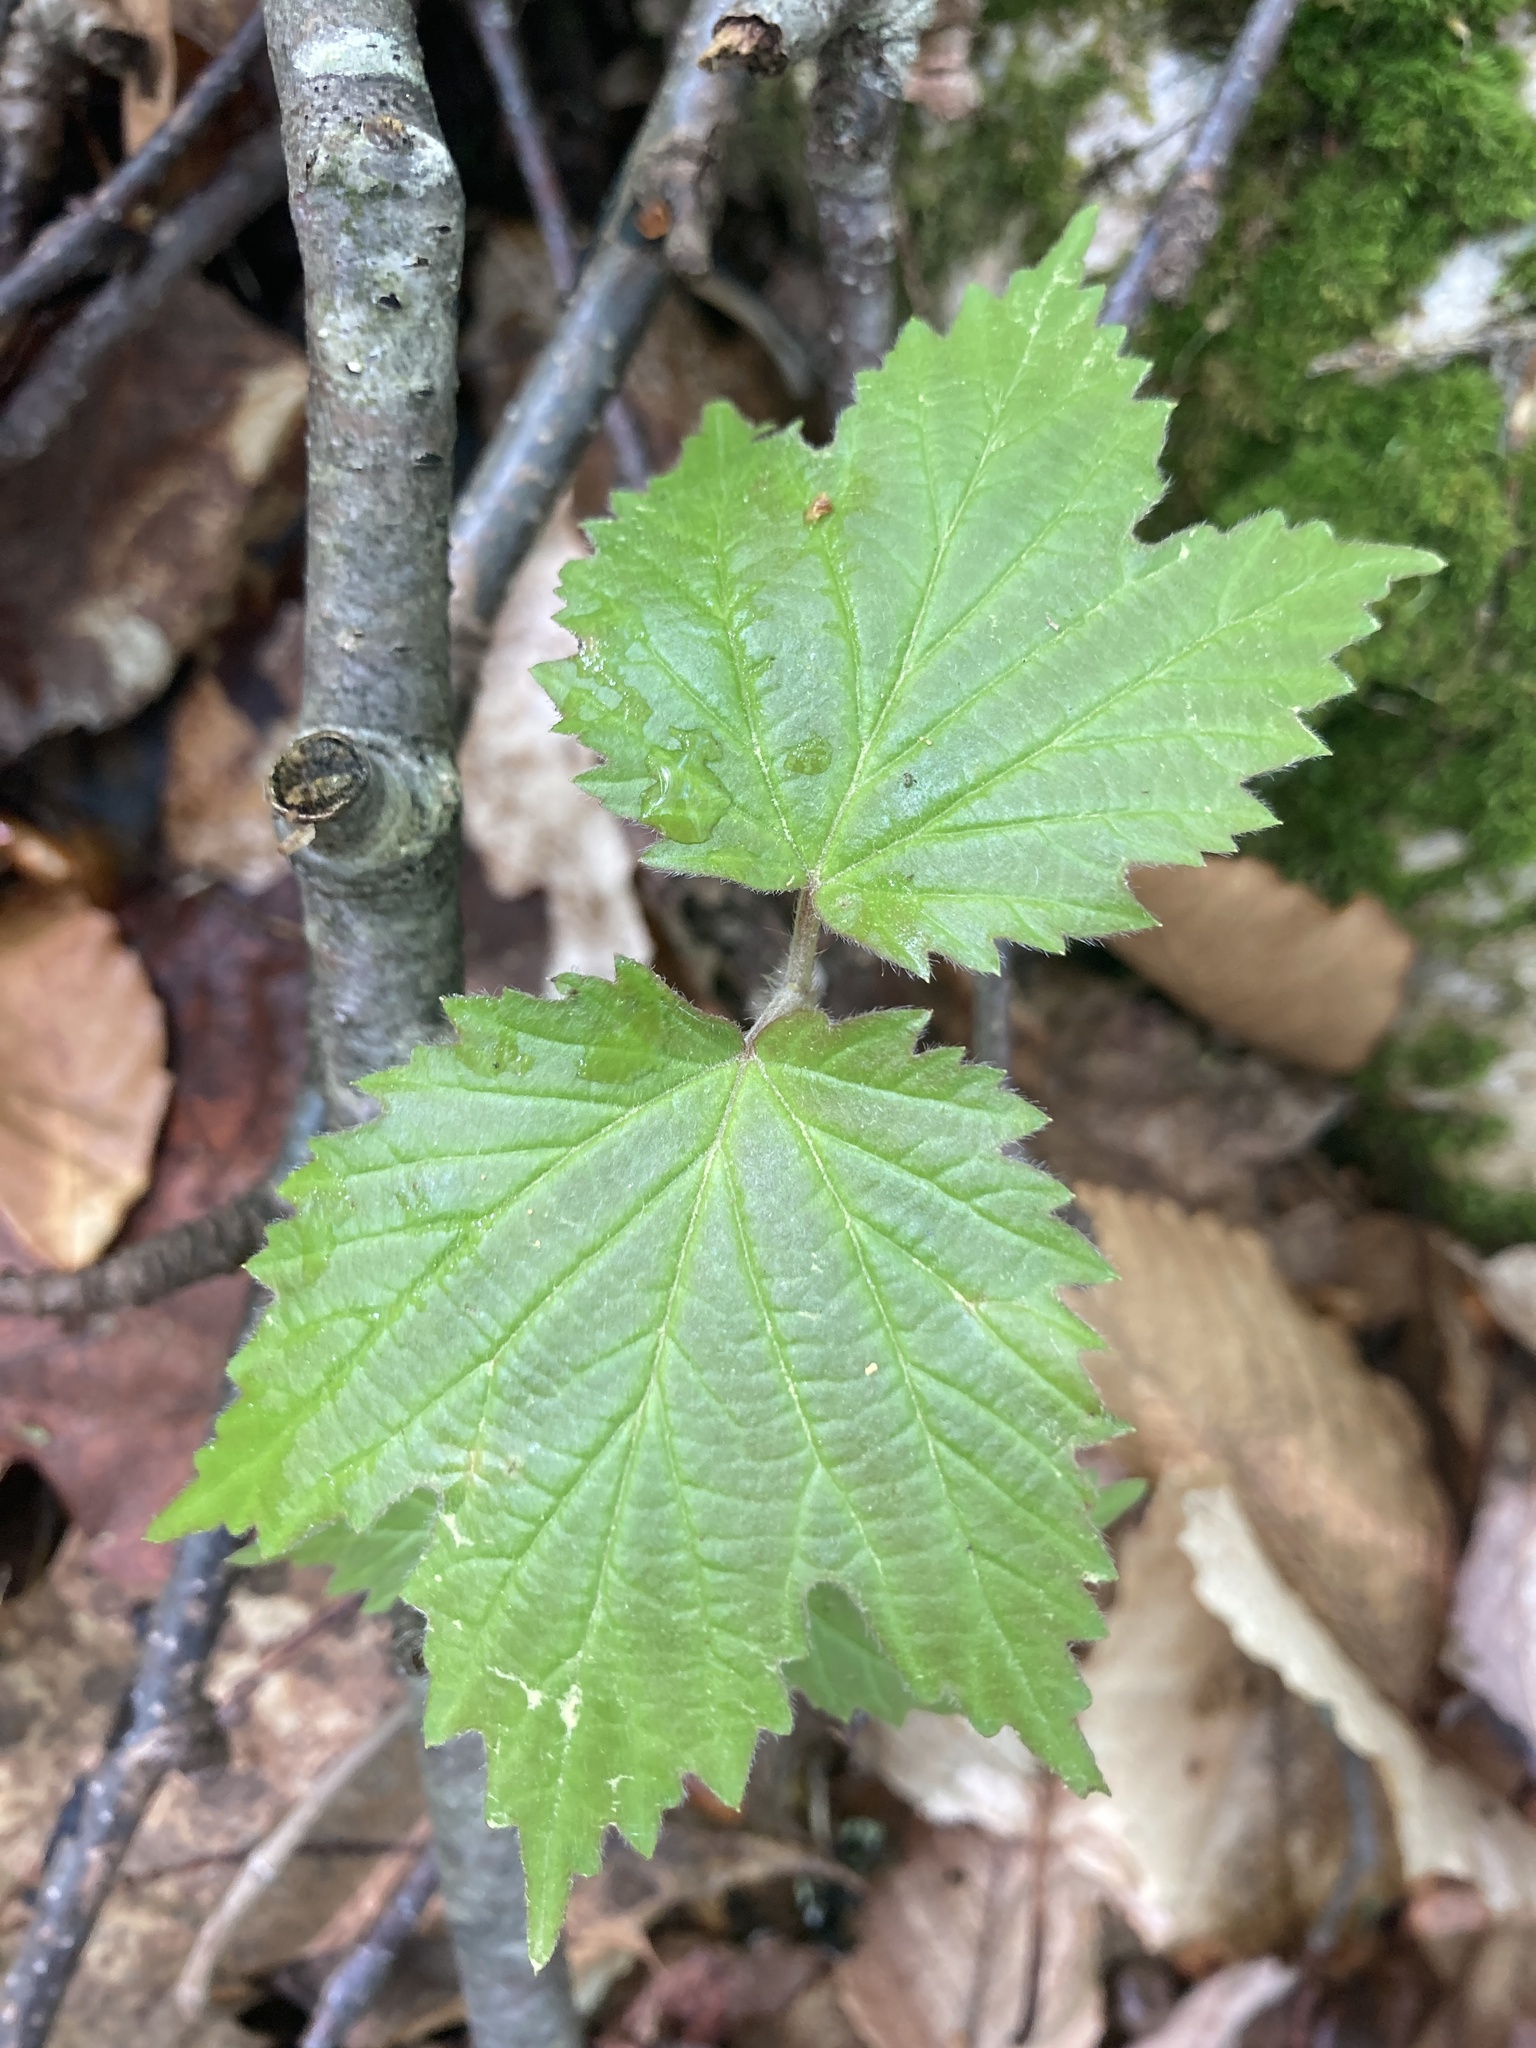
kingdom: Plantae
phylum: Tracheophyta
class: Magnoliopsida
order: Dipsacales
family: Viburnaceae
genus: Viburnum
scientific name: Viburnum acerifolium
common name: Dockmackie
